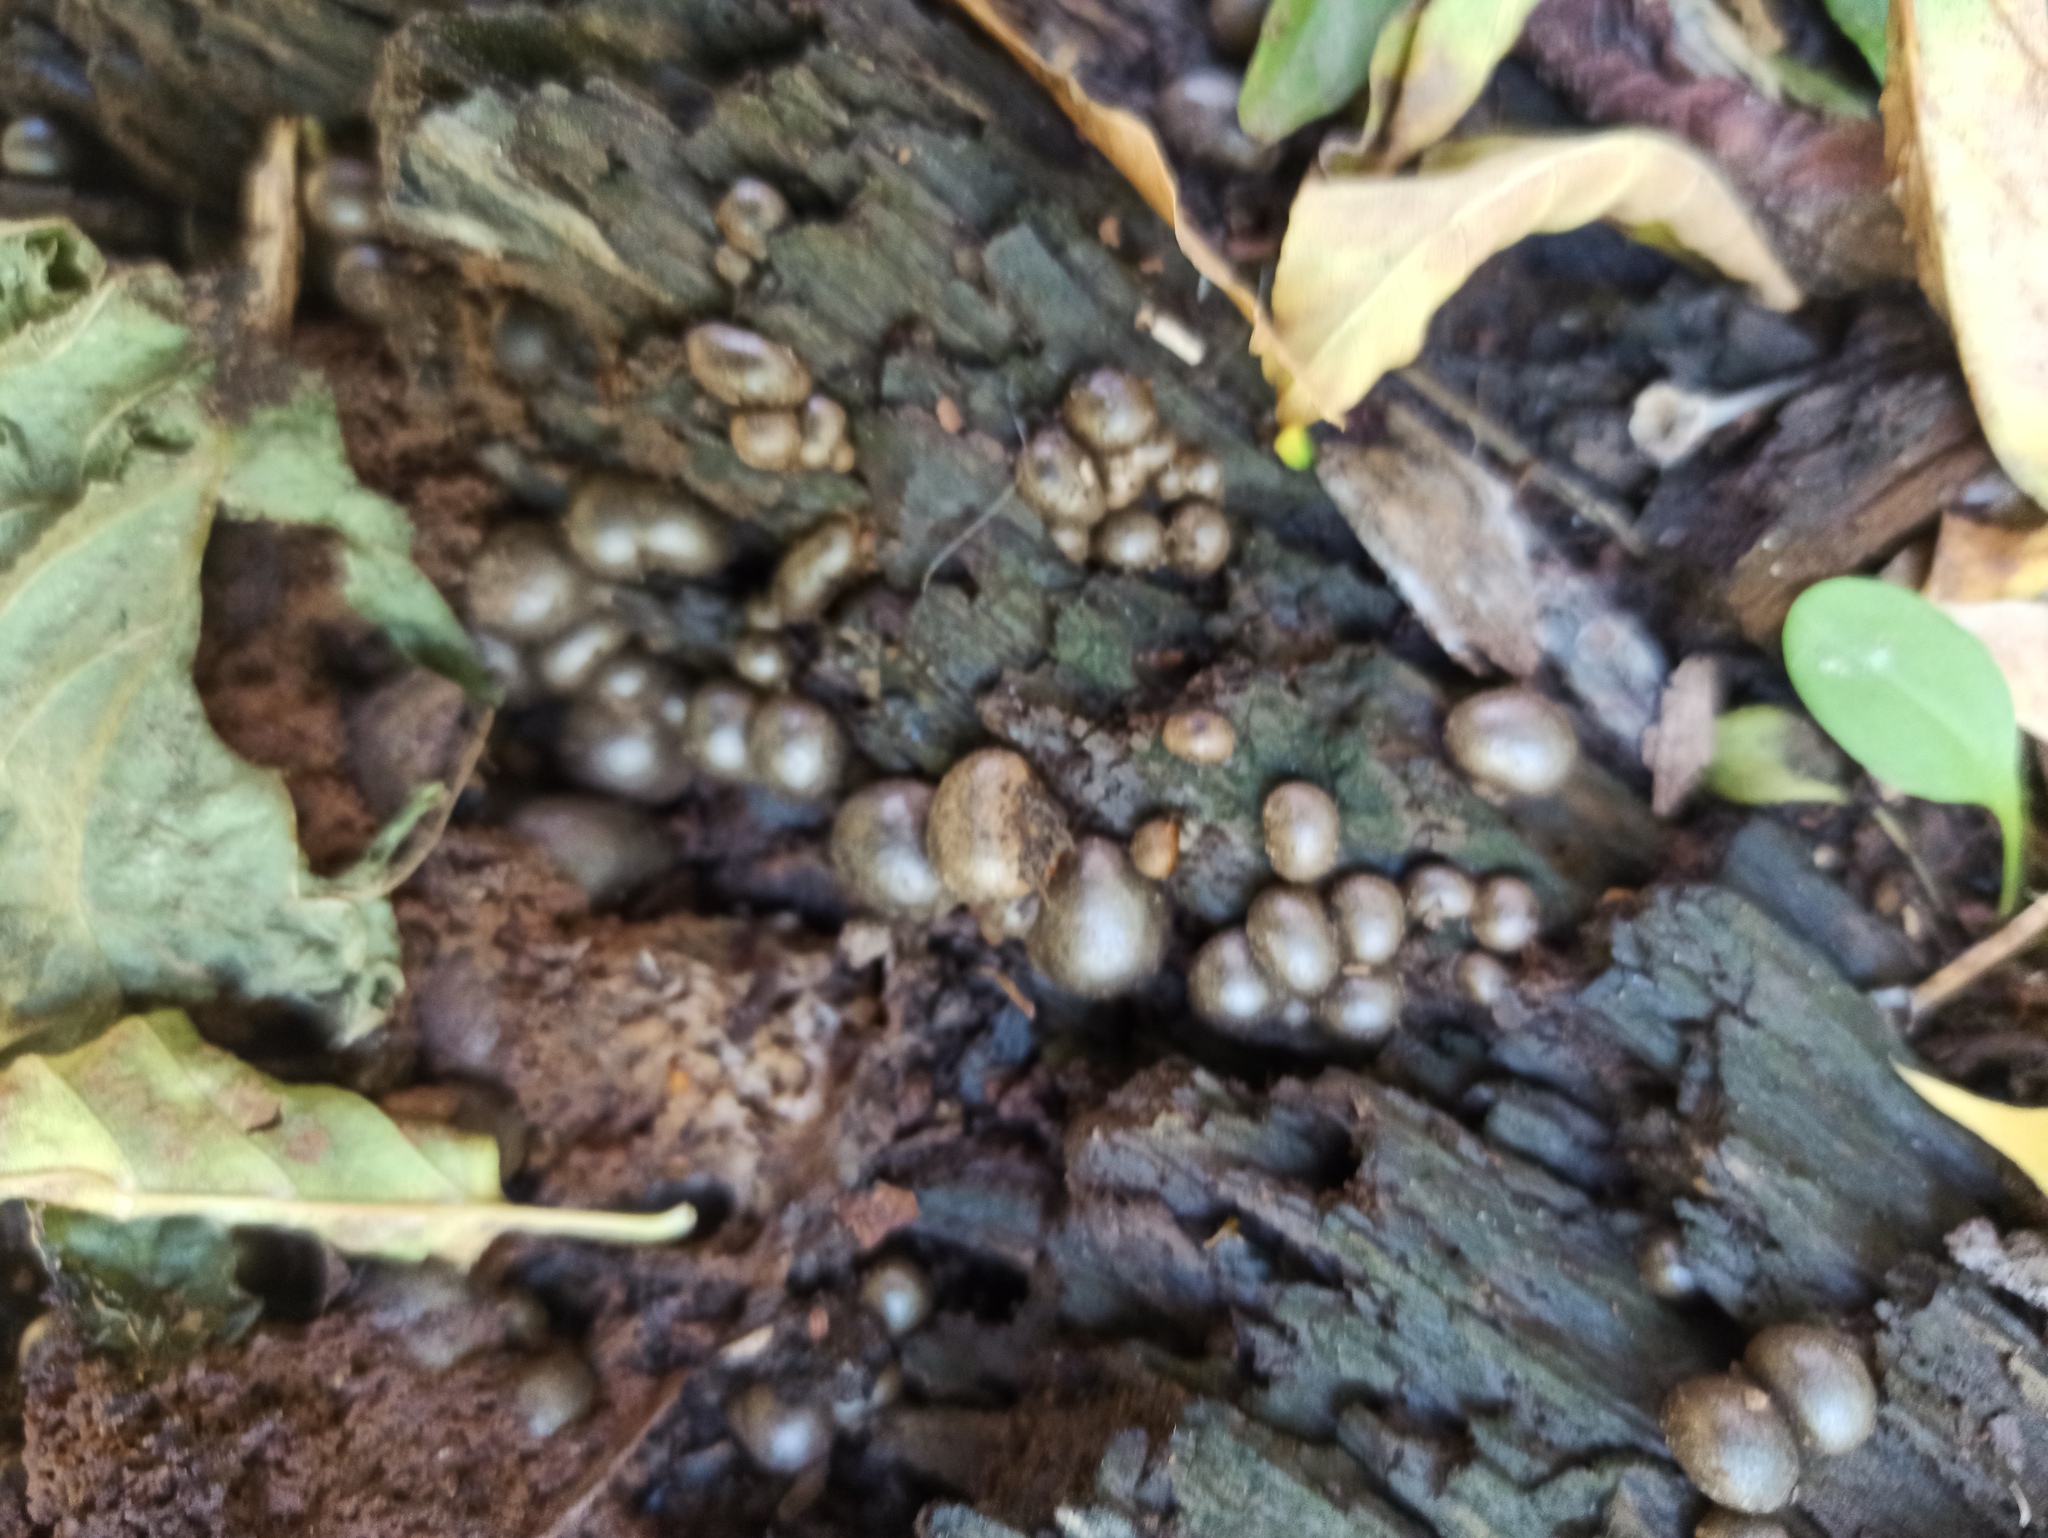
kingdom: Protozoa
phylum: Mycetozoa
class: Myxomycetes
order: Cribrariales
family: Tubiferaceae
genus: Lycogala
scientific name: Lycogala epidendrum
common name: Wolf's milk
